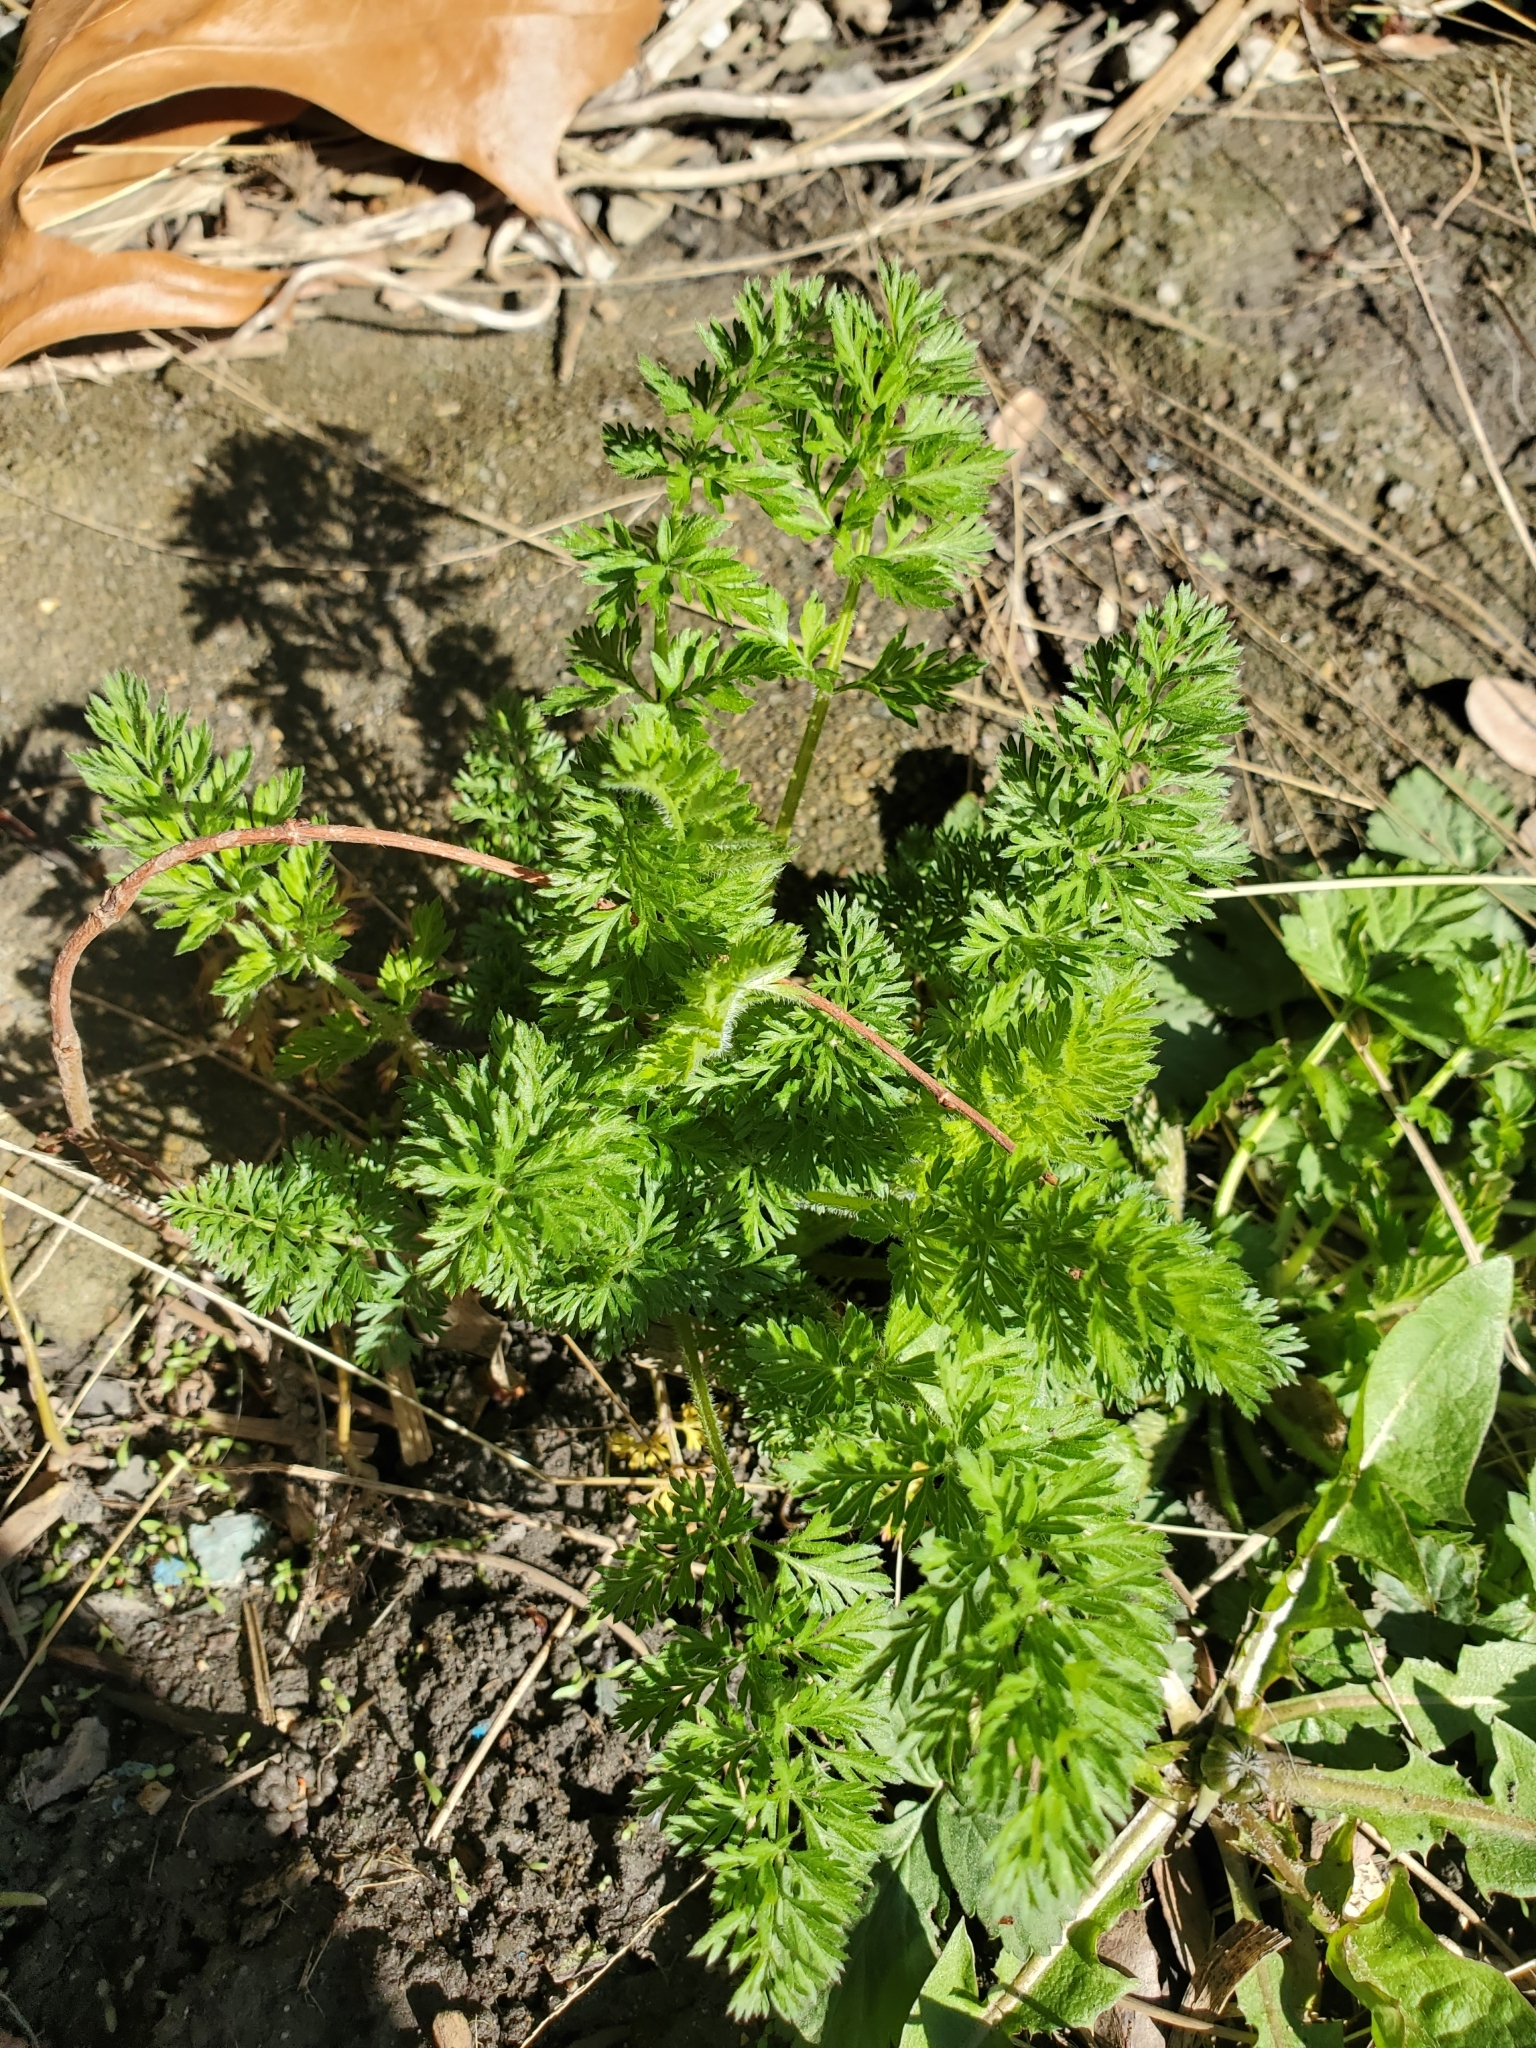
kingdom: Plantae
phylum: Tracheophyta
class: Magnoliopsida
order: Apiales
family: Apiaceae
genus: Daucus
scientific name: Daucus carota
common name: Wild carrot
